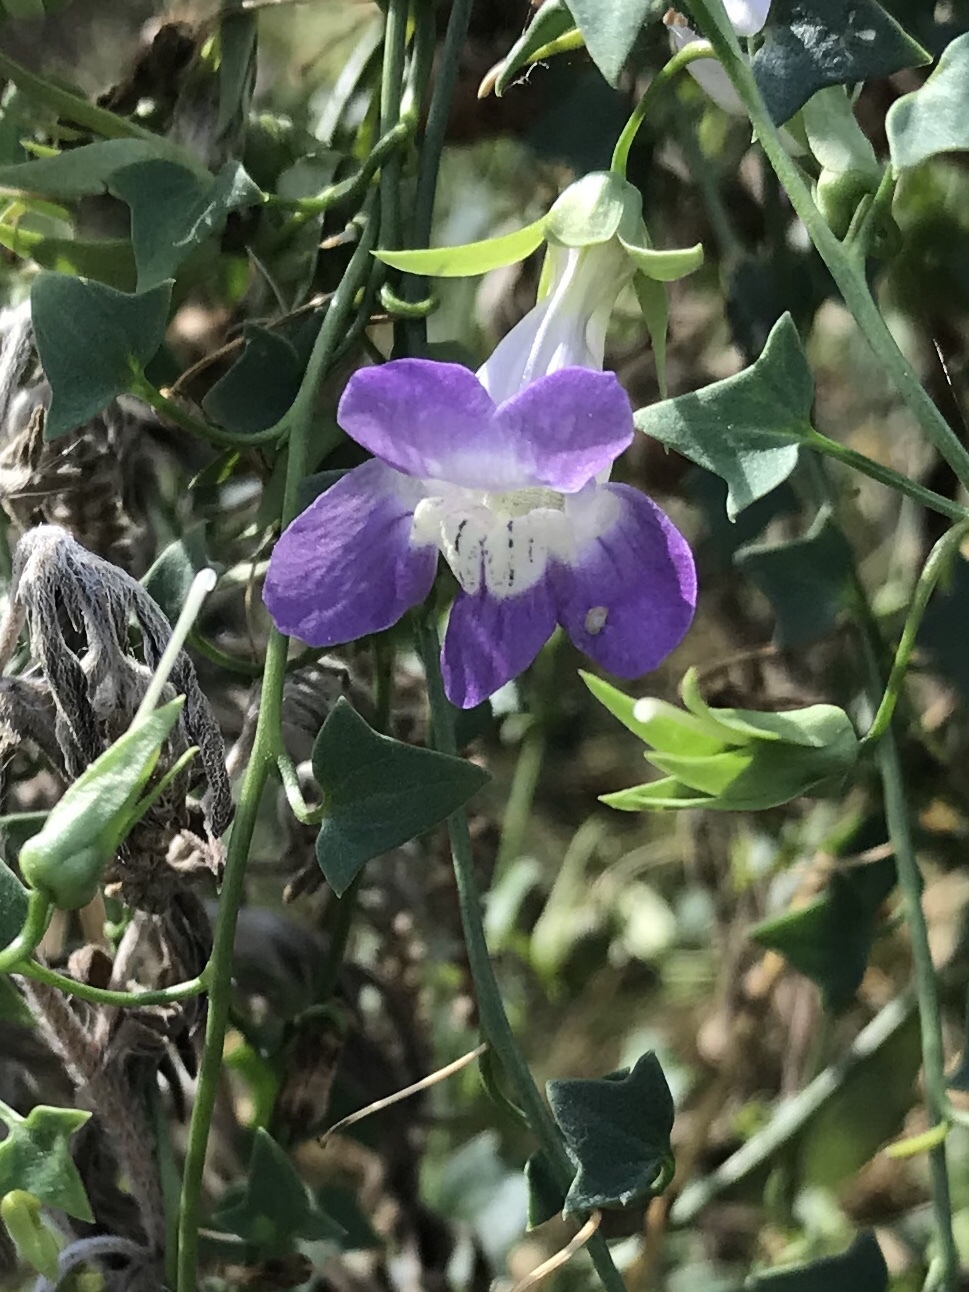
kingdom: Plantae
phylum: Tracheophyta
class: Magnoliopsida
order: Lamiales
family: Plantaginaceae
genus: Maurandella
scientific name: Maurandella antirrhiniflora
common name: Violet twining-snapdragon
